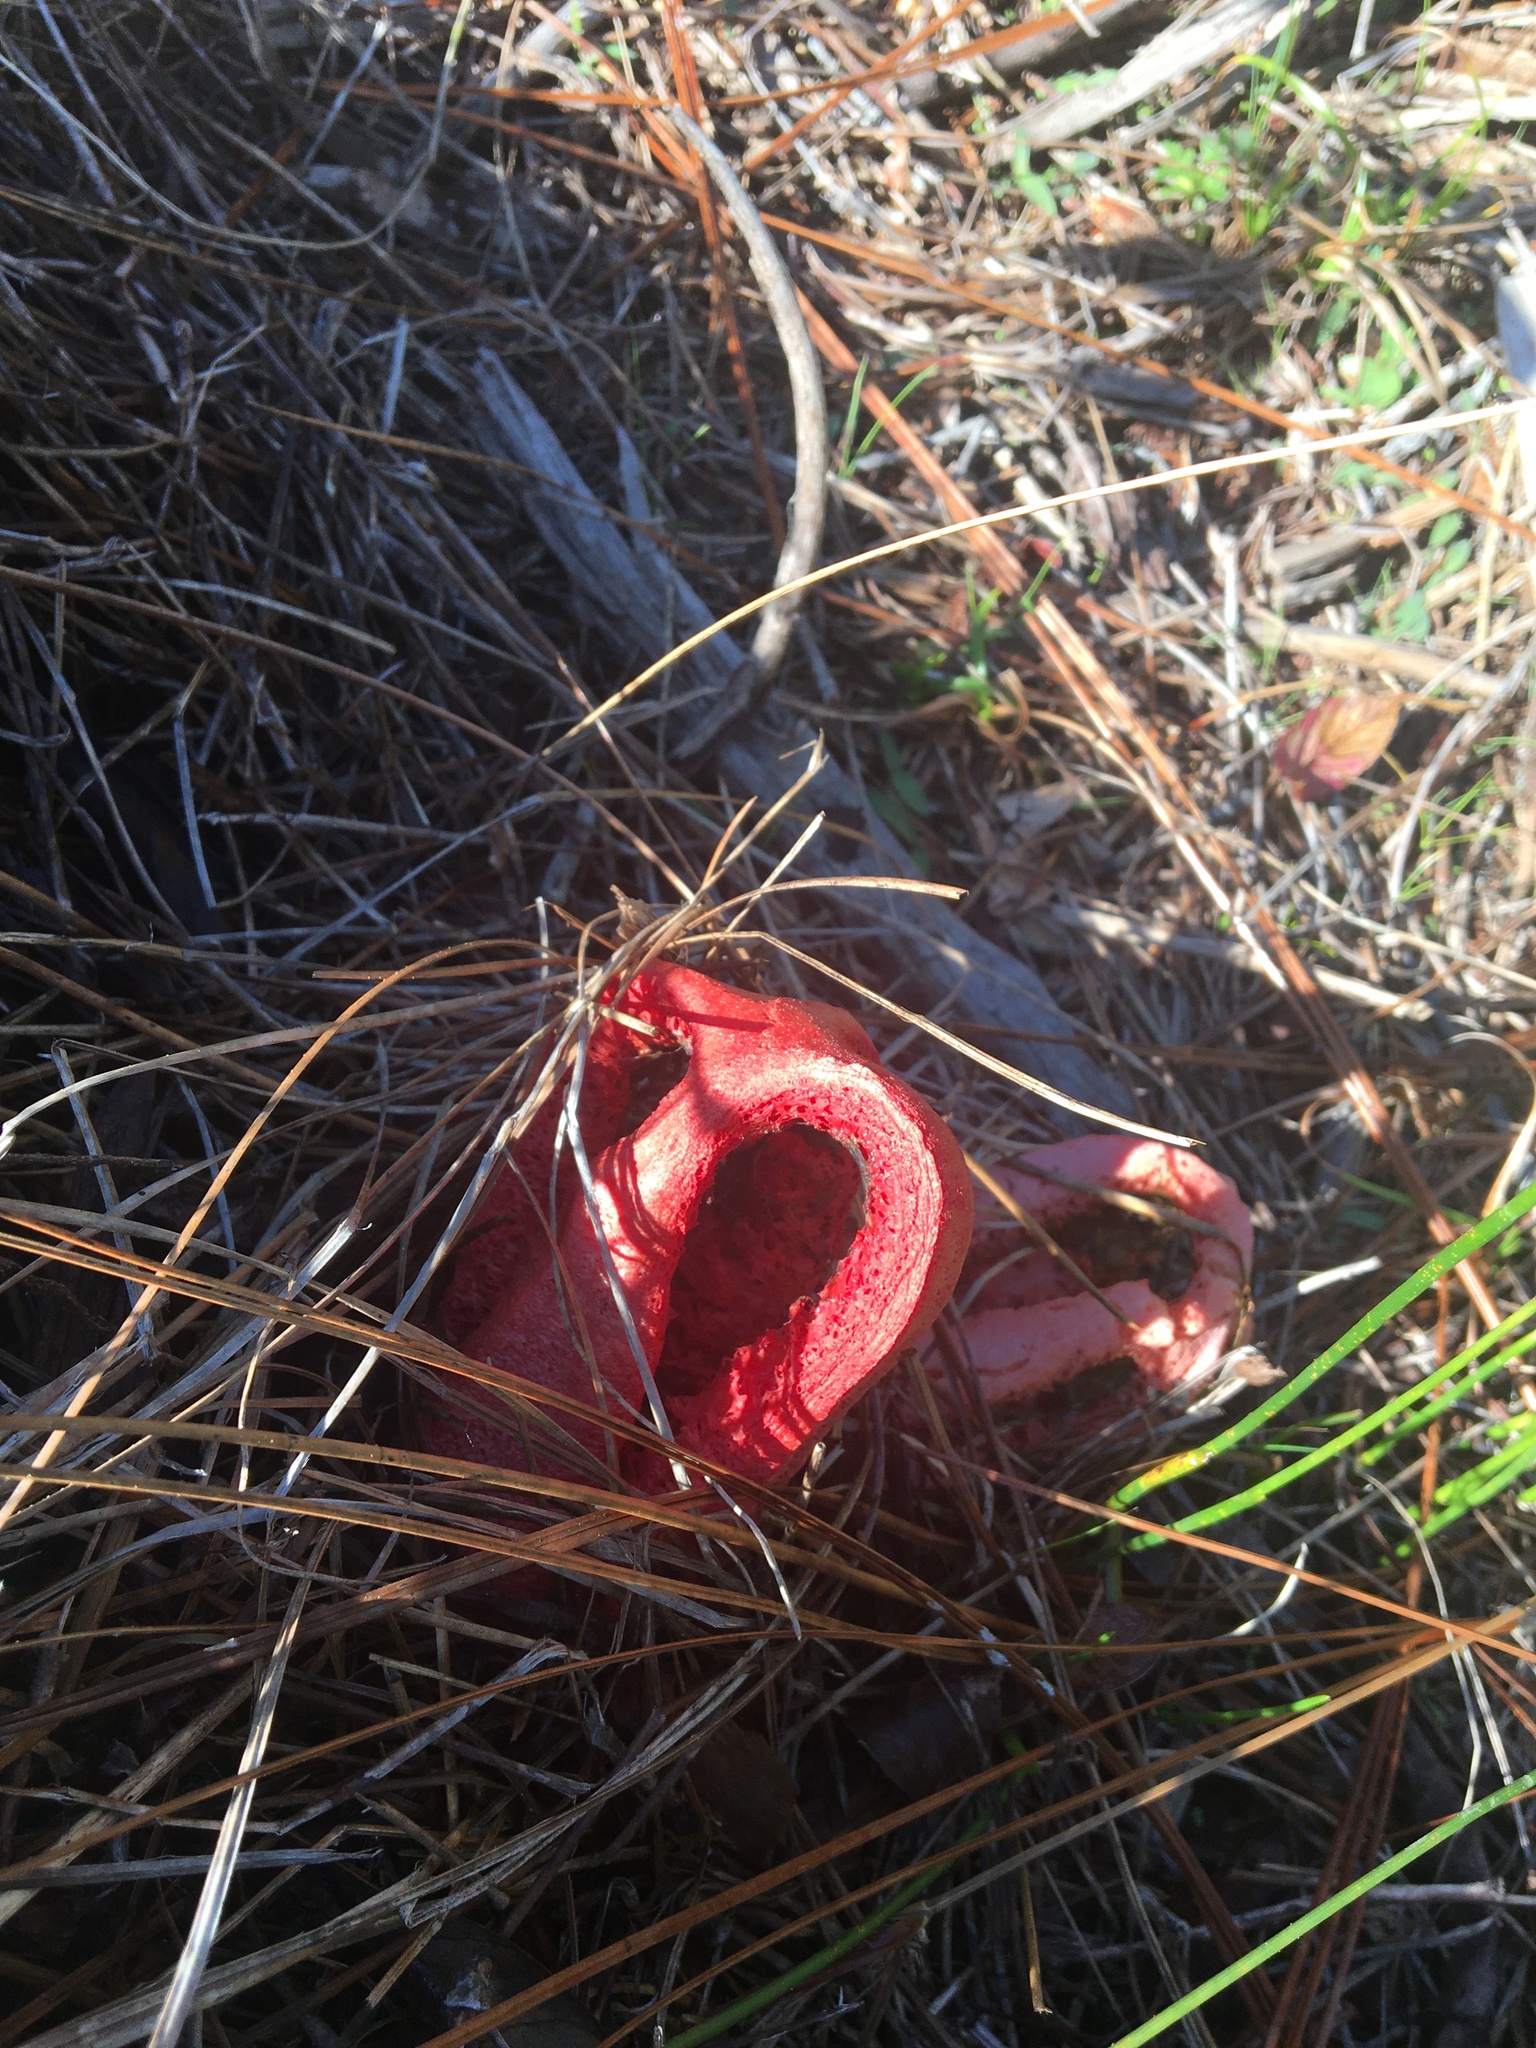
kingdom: Fungi
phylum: Basidiomycota
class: Agaricomycetes
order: Phallales
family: Phallaceae
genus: Clathrus
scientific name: Clathrus columnatus
